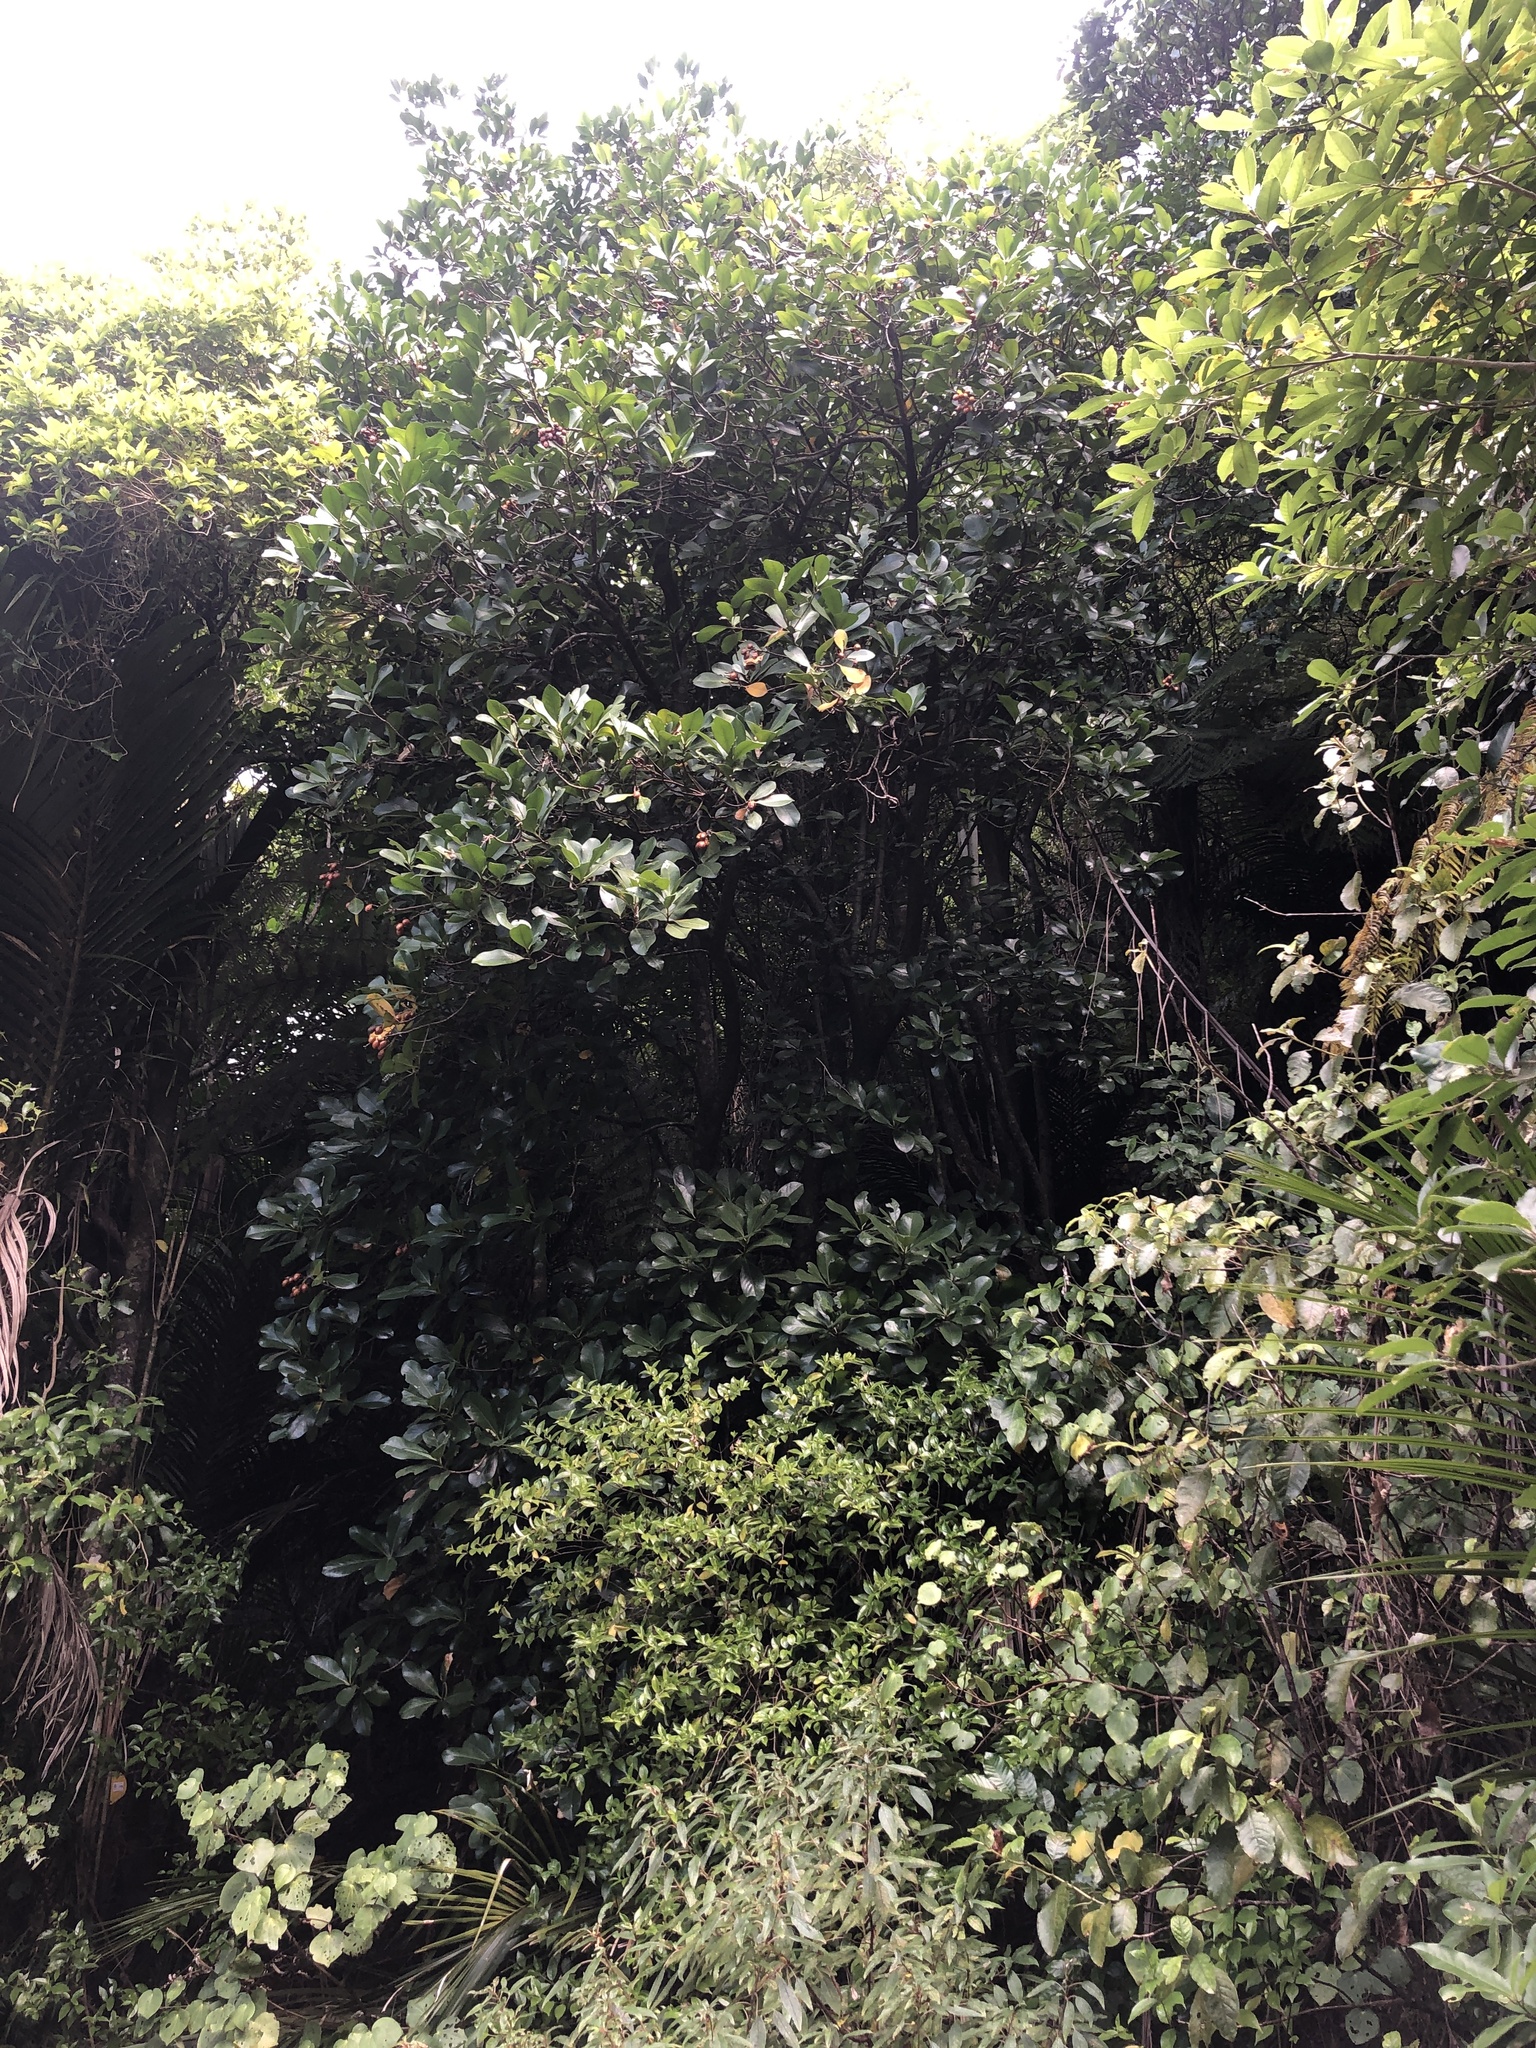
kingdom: Plantae
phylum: Tracheophyta
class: Magnoliopsida
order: Cucurbitales
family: Corynocarpaceae
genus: Corynocarpus
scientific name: Corynocarpus laevigatus
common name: New zealand laurel
